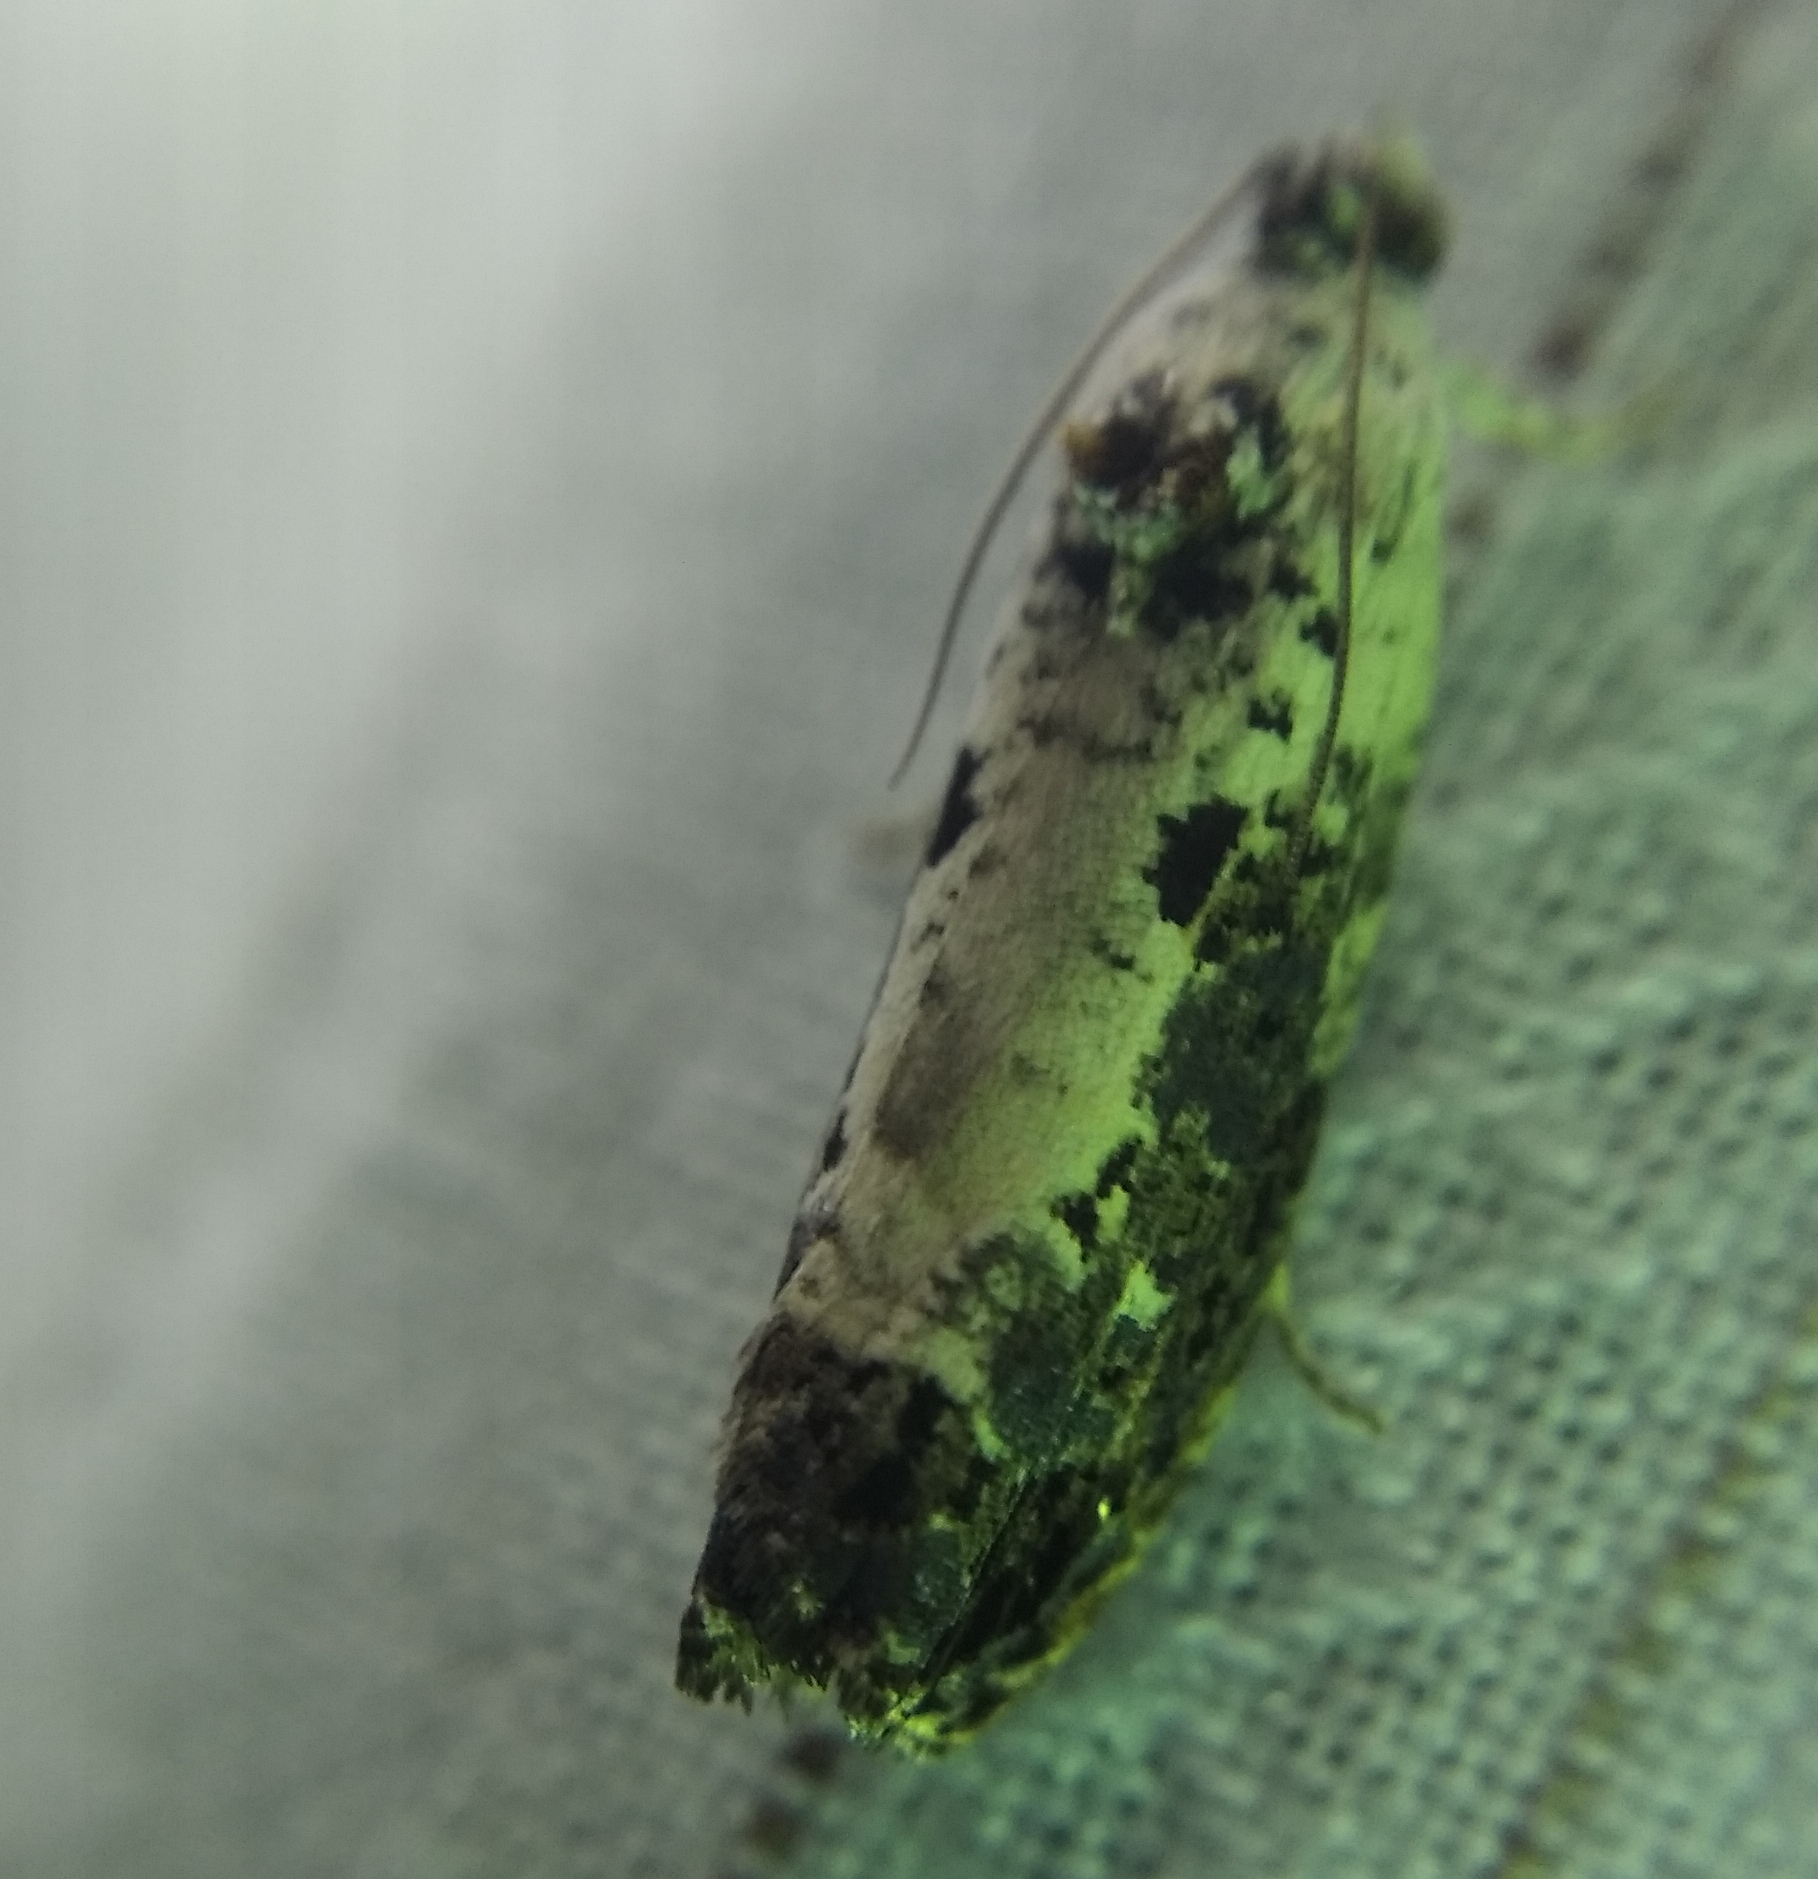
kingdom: Animalia
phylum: Arthropoda
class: Insecta
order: Lepidoptera
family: Tortricidae
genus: Hedya
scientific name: Hedya salicella
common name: Large tortricid moth
